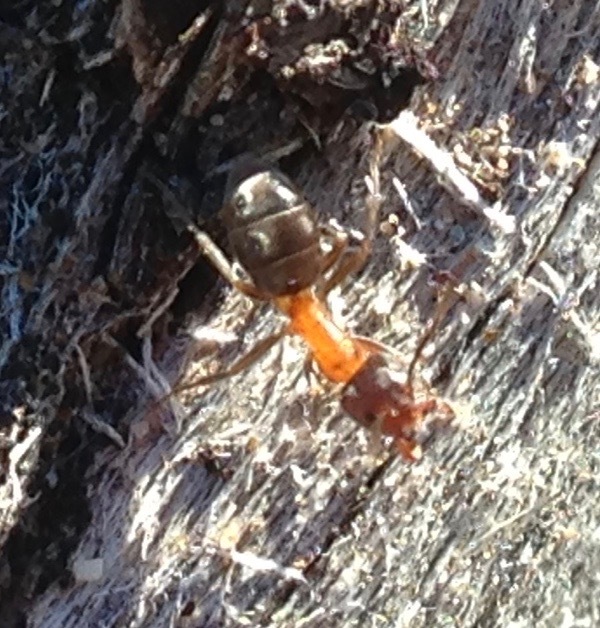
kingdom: Animalia
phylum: Arthropoda
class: Insecta
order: Hymenoptera
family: Formicidae
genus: Liometopum
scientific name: Liometopum occidentale
